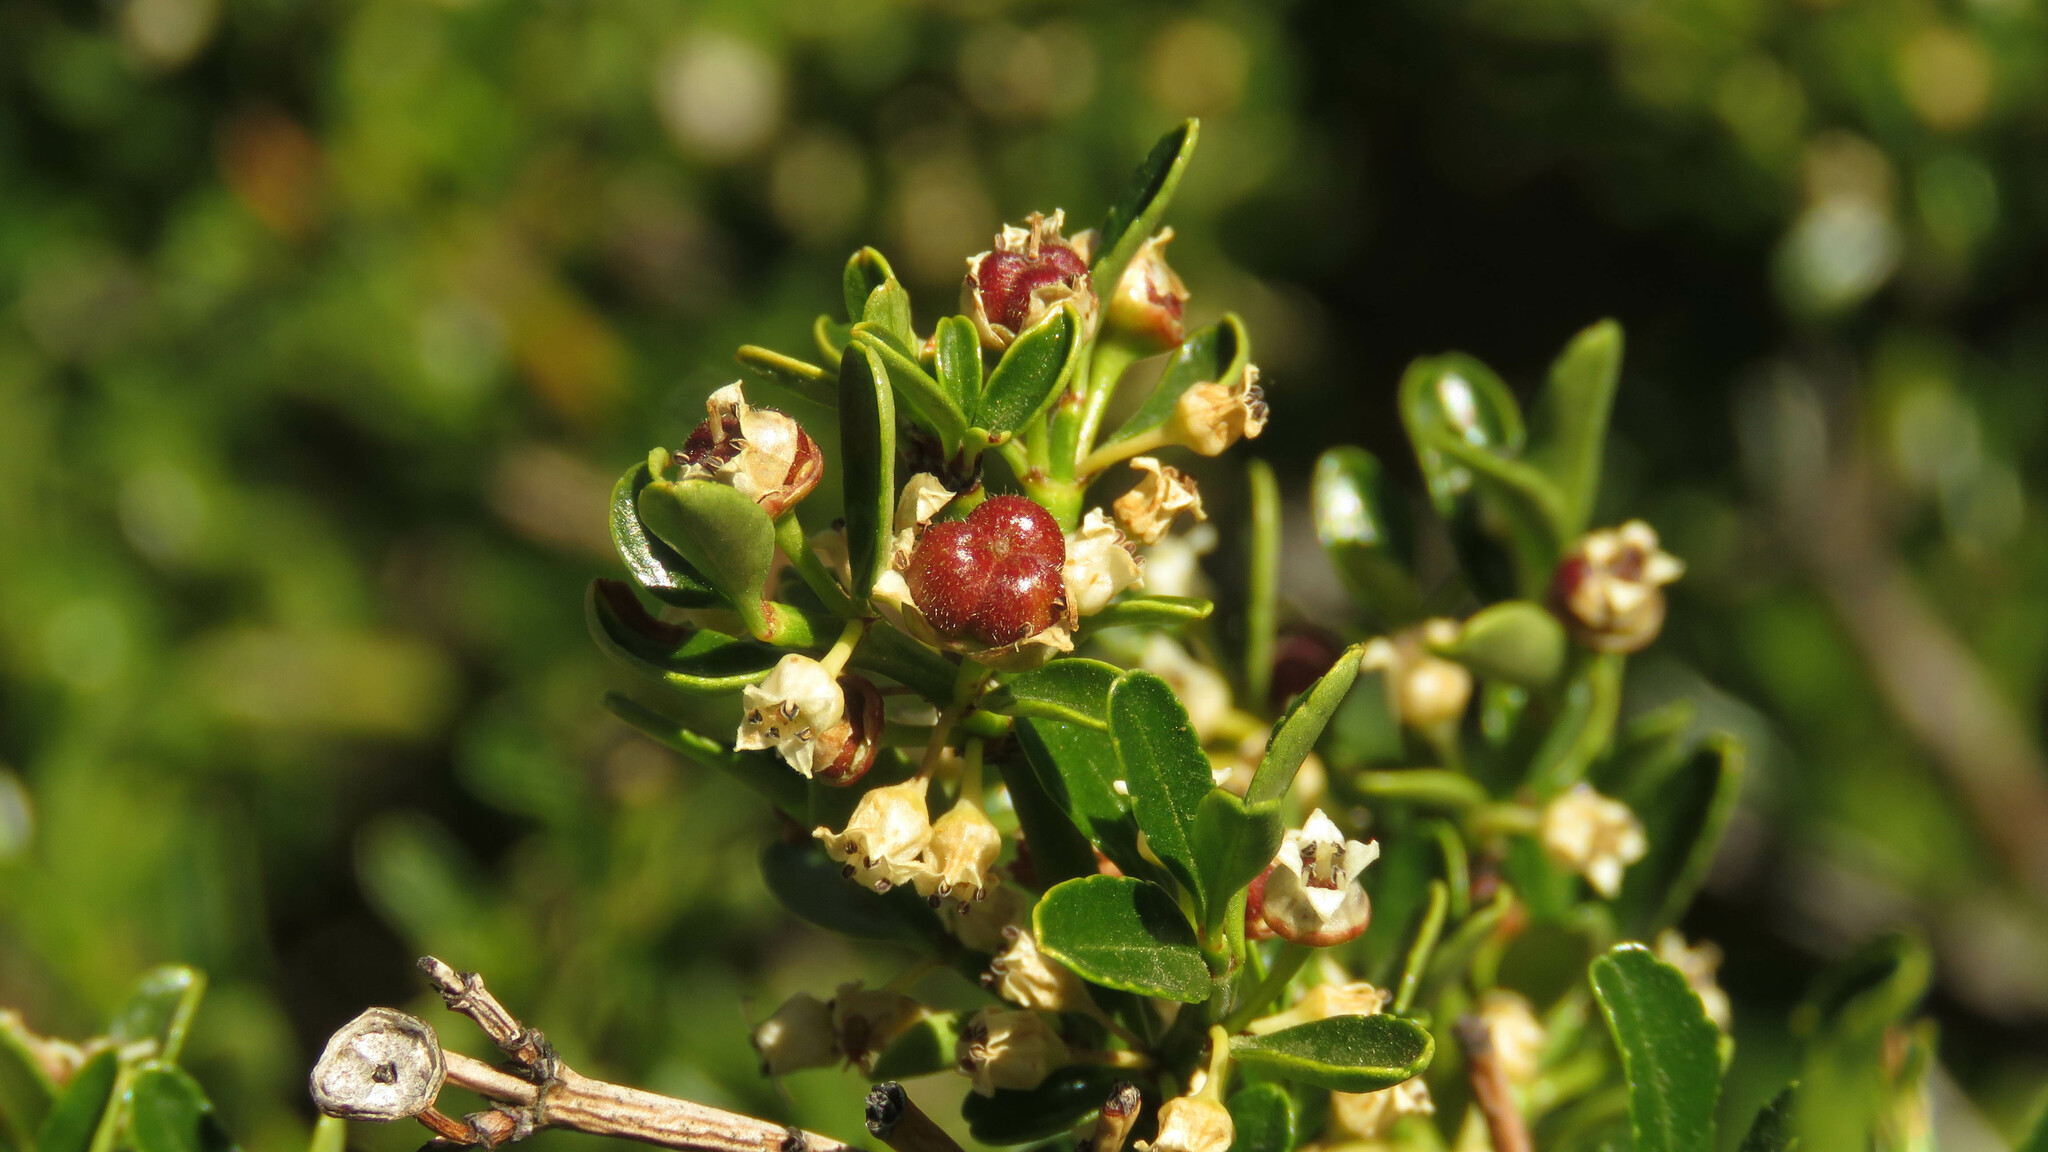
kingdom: Plantae
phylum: Tracheophyta
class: Magnoliopsida
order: Rosales
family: Rhamnaceae
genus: Discaria
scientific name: Discaria chacaye
